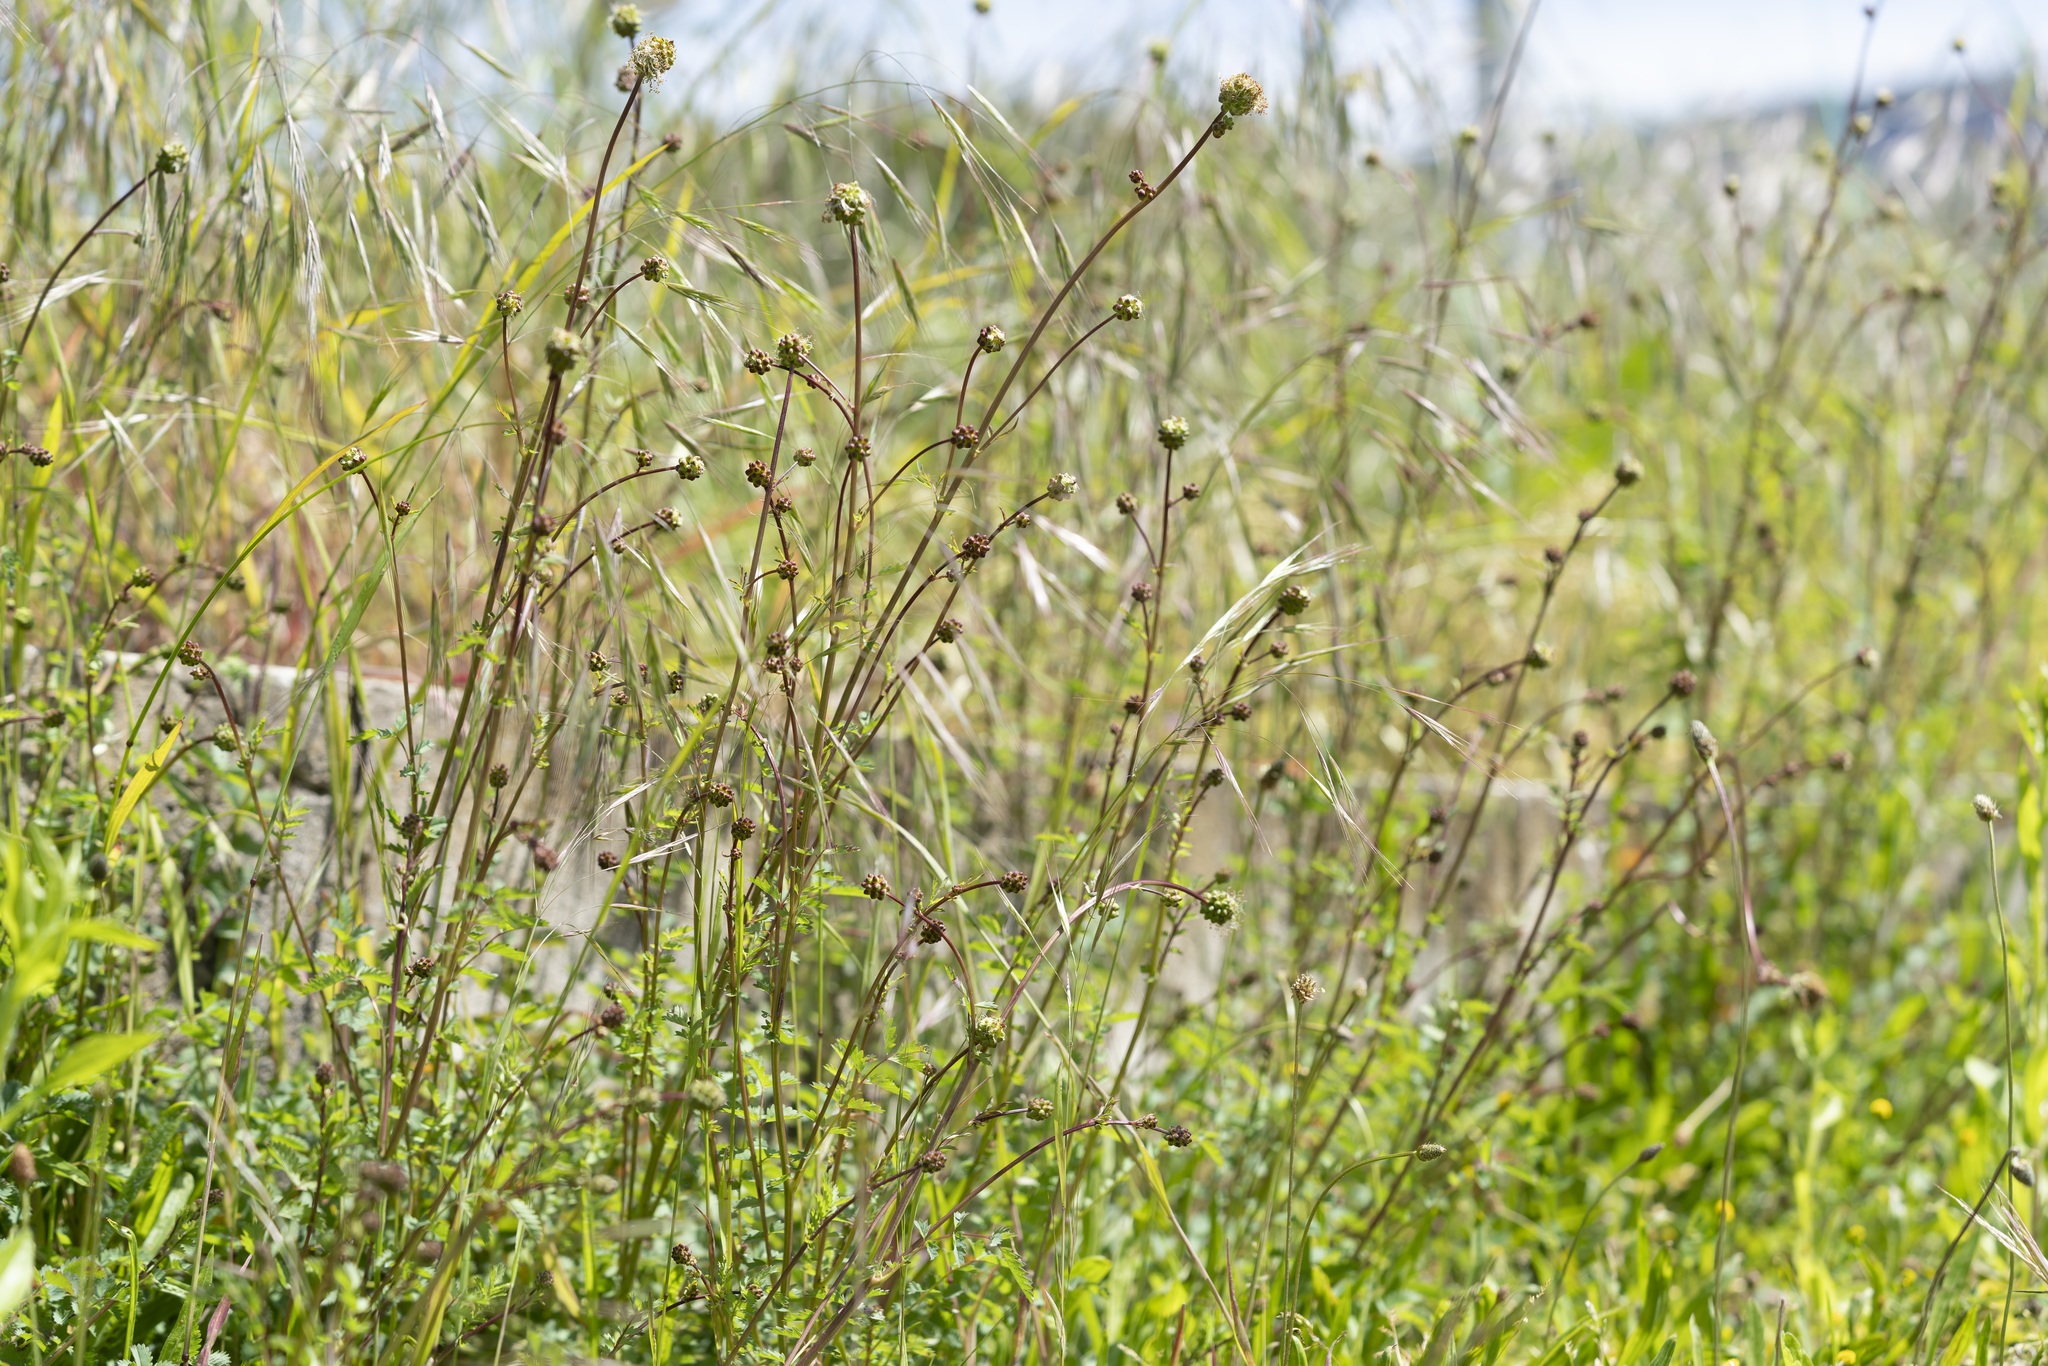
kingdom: Plantae
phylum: Tracheophyta
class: Magnoliopsida
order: Rosales
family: Rosaceae
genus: Poterium
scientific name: Poterium sanguisorba
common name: Salad burnet
